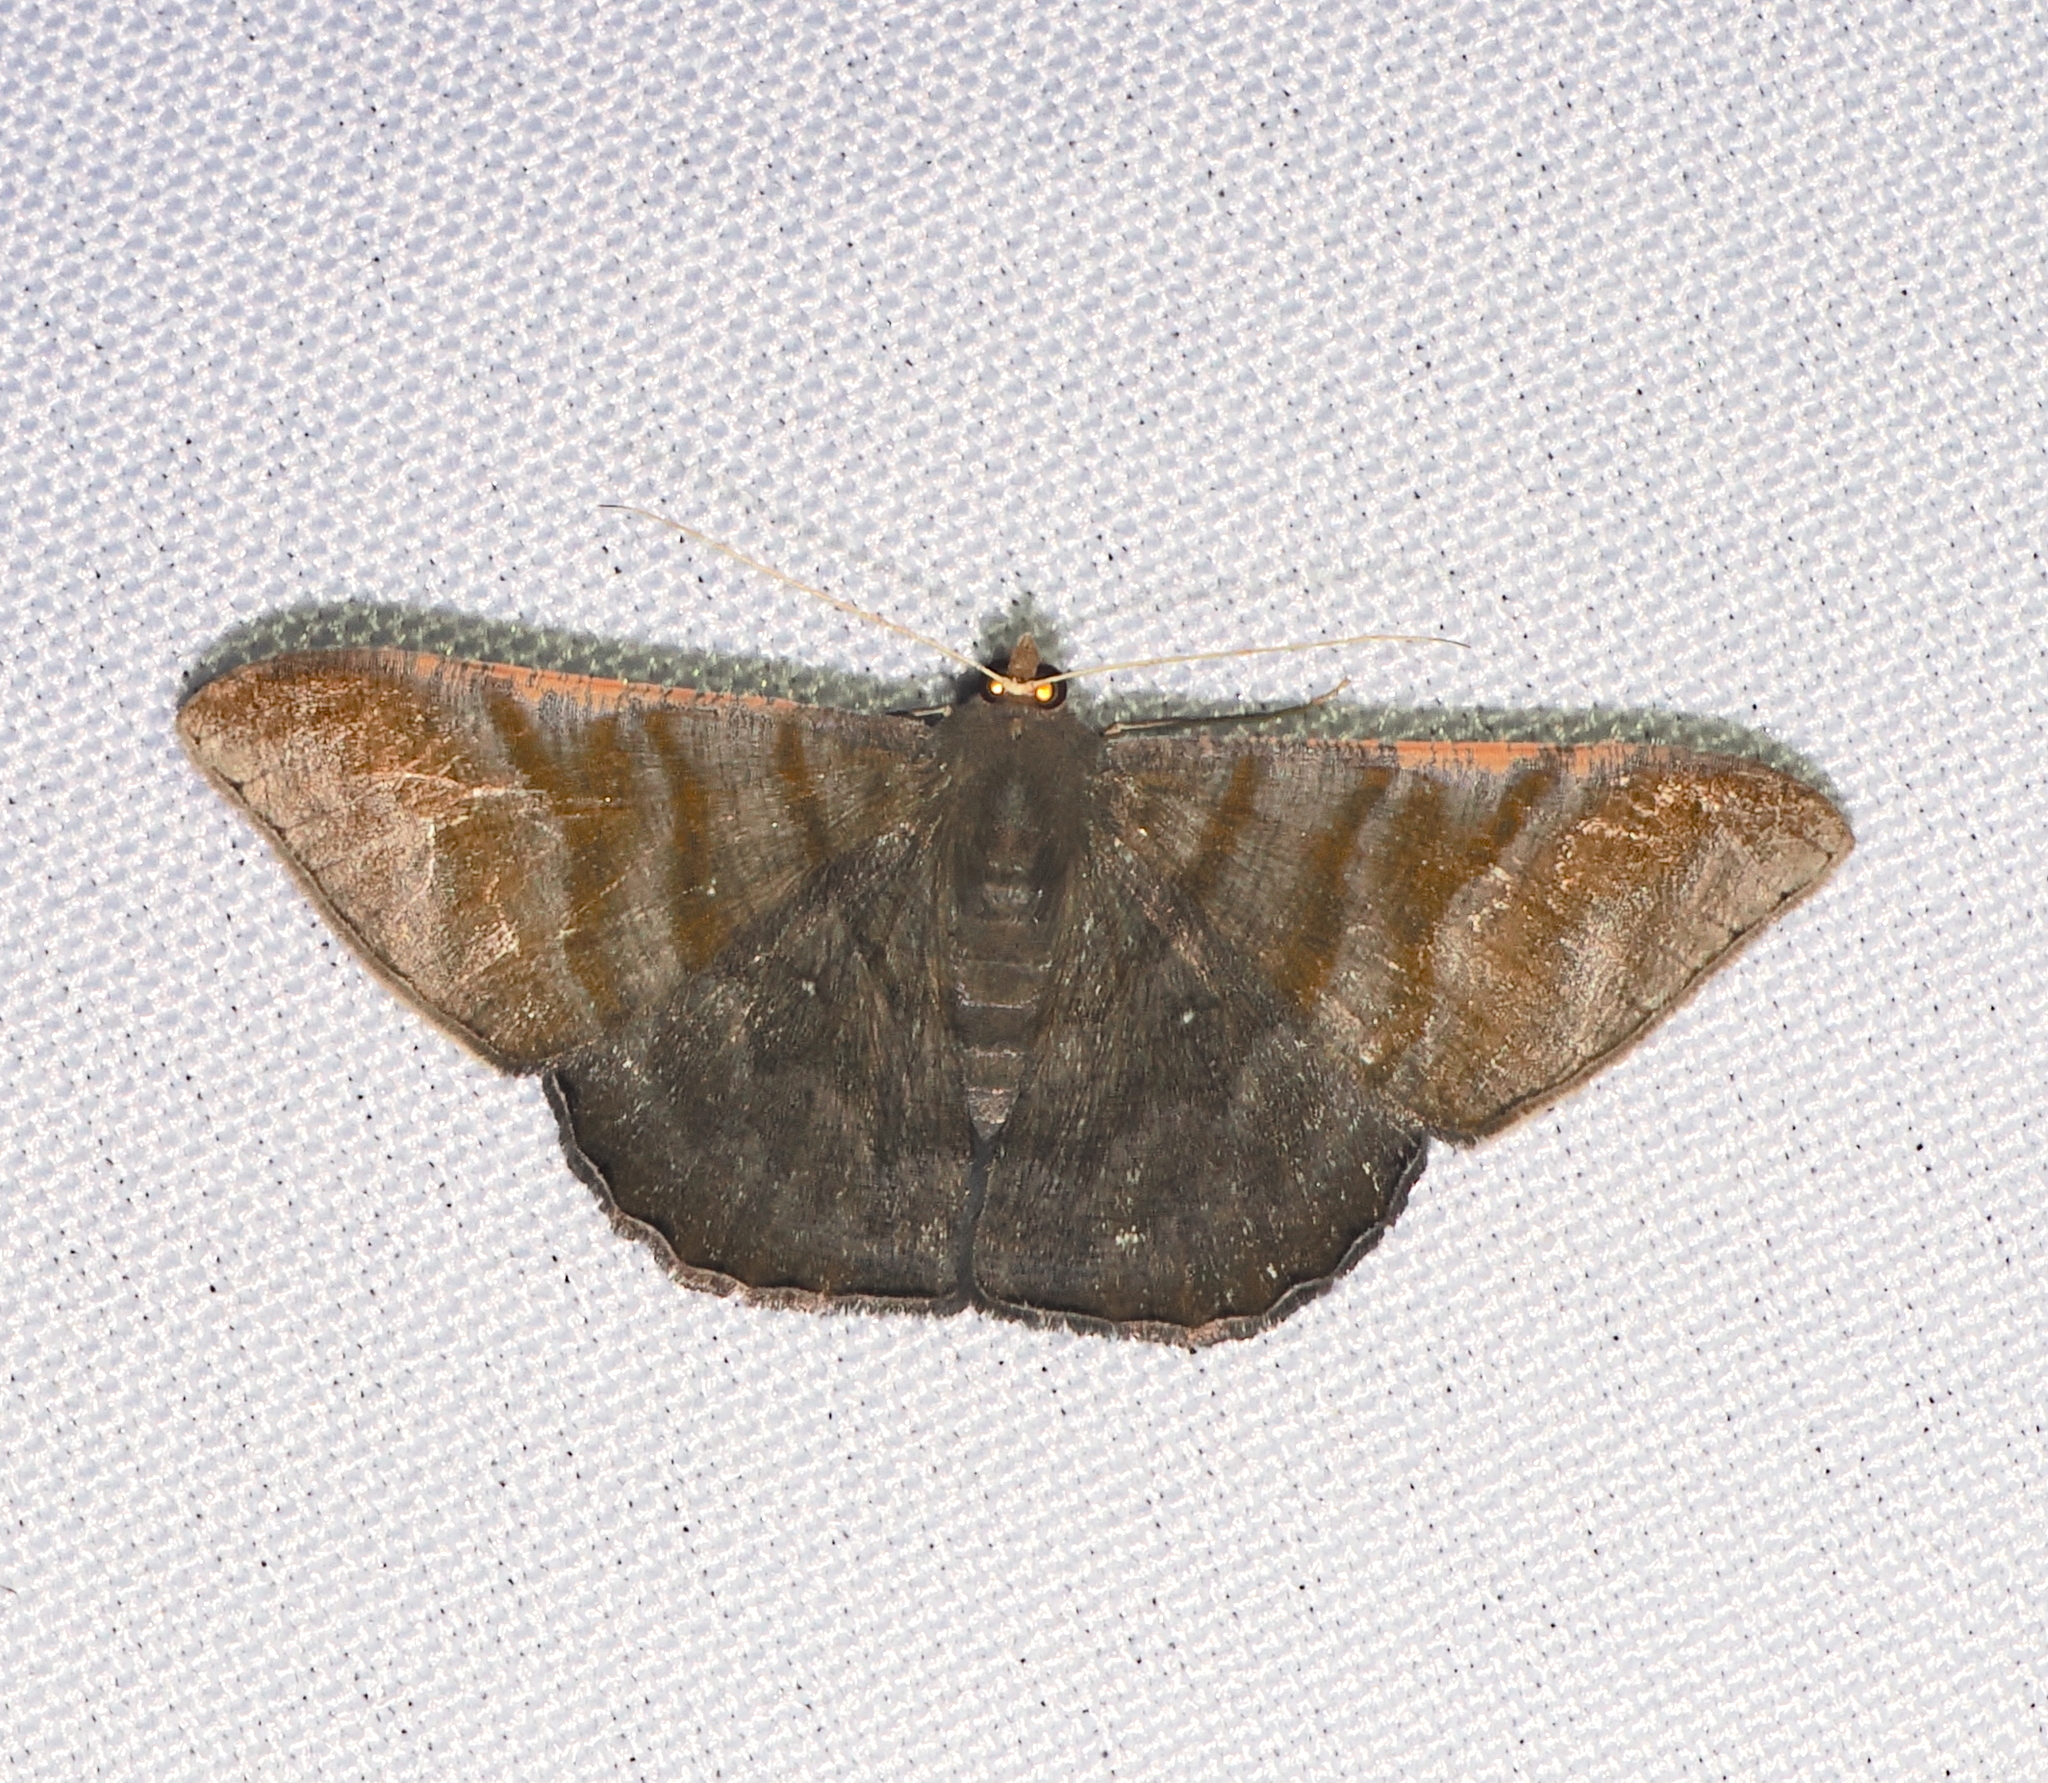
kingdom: Animalia
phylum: Arthropoda
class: Insecta
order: Lepidoptera
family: Geometridae
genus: Sphacelodes
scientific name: Sphacelodes vulneraria
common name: Looper moth
